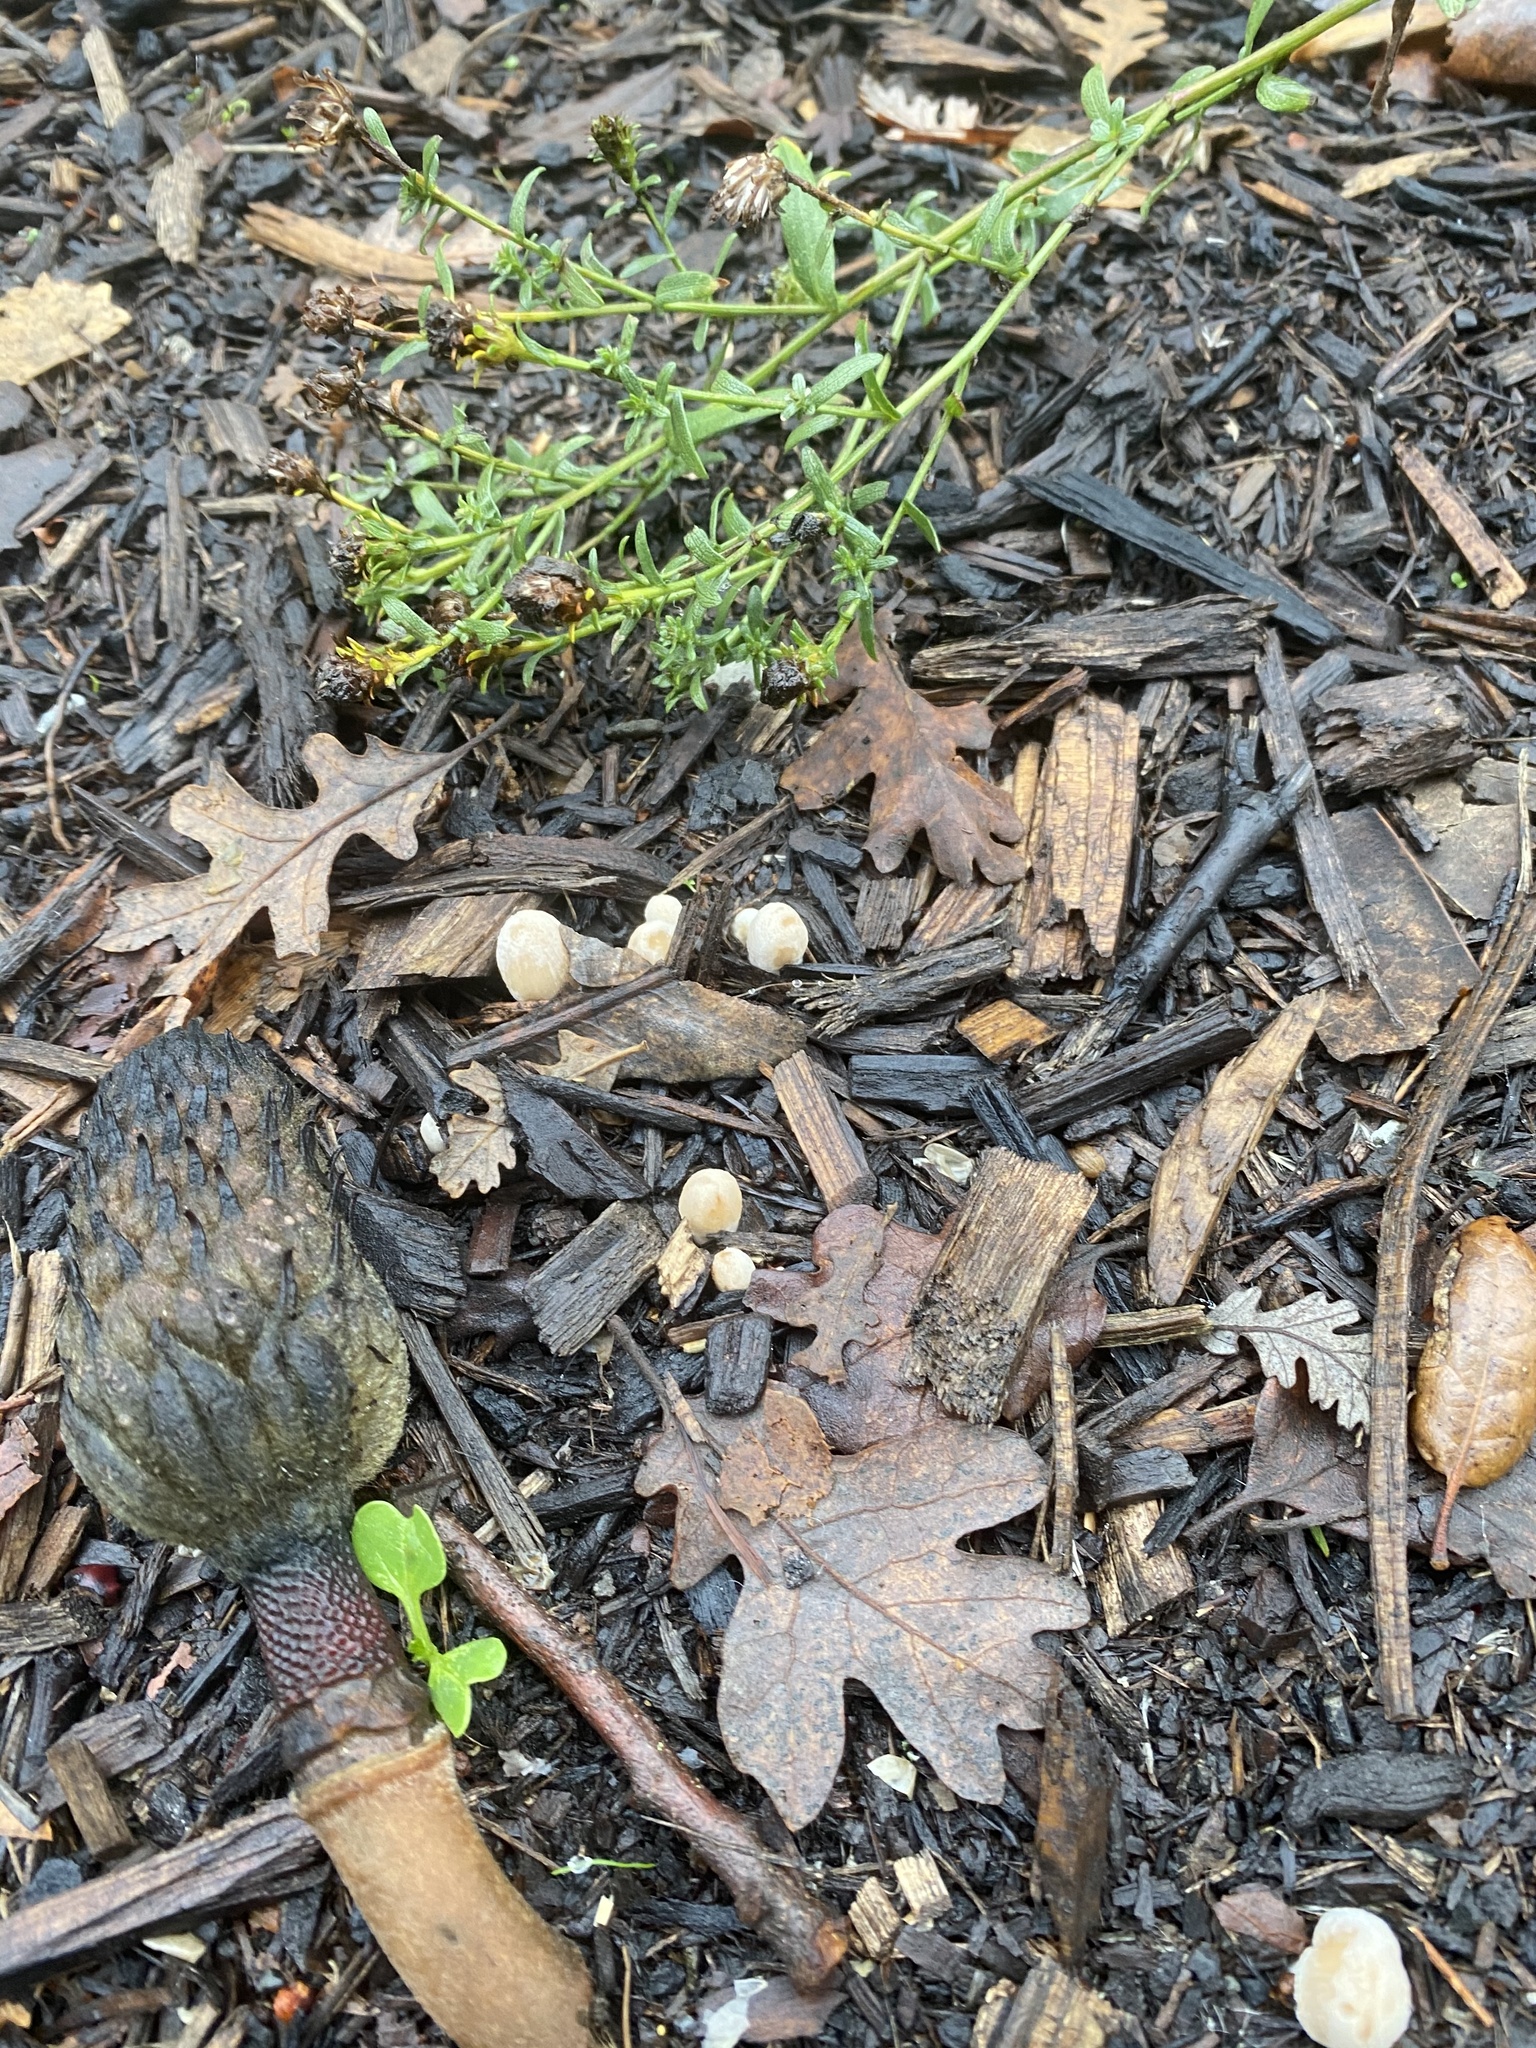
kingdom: Fungi
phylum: Basidiomycota
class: Agaricomycetes
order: Agaricales
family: Psathyrellaceae
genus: Coprinellus
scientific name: Coprinellus flocculosus
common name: Flocculose inkcap
